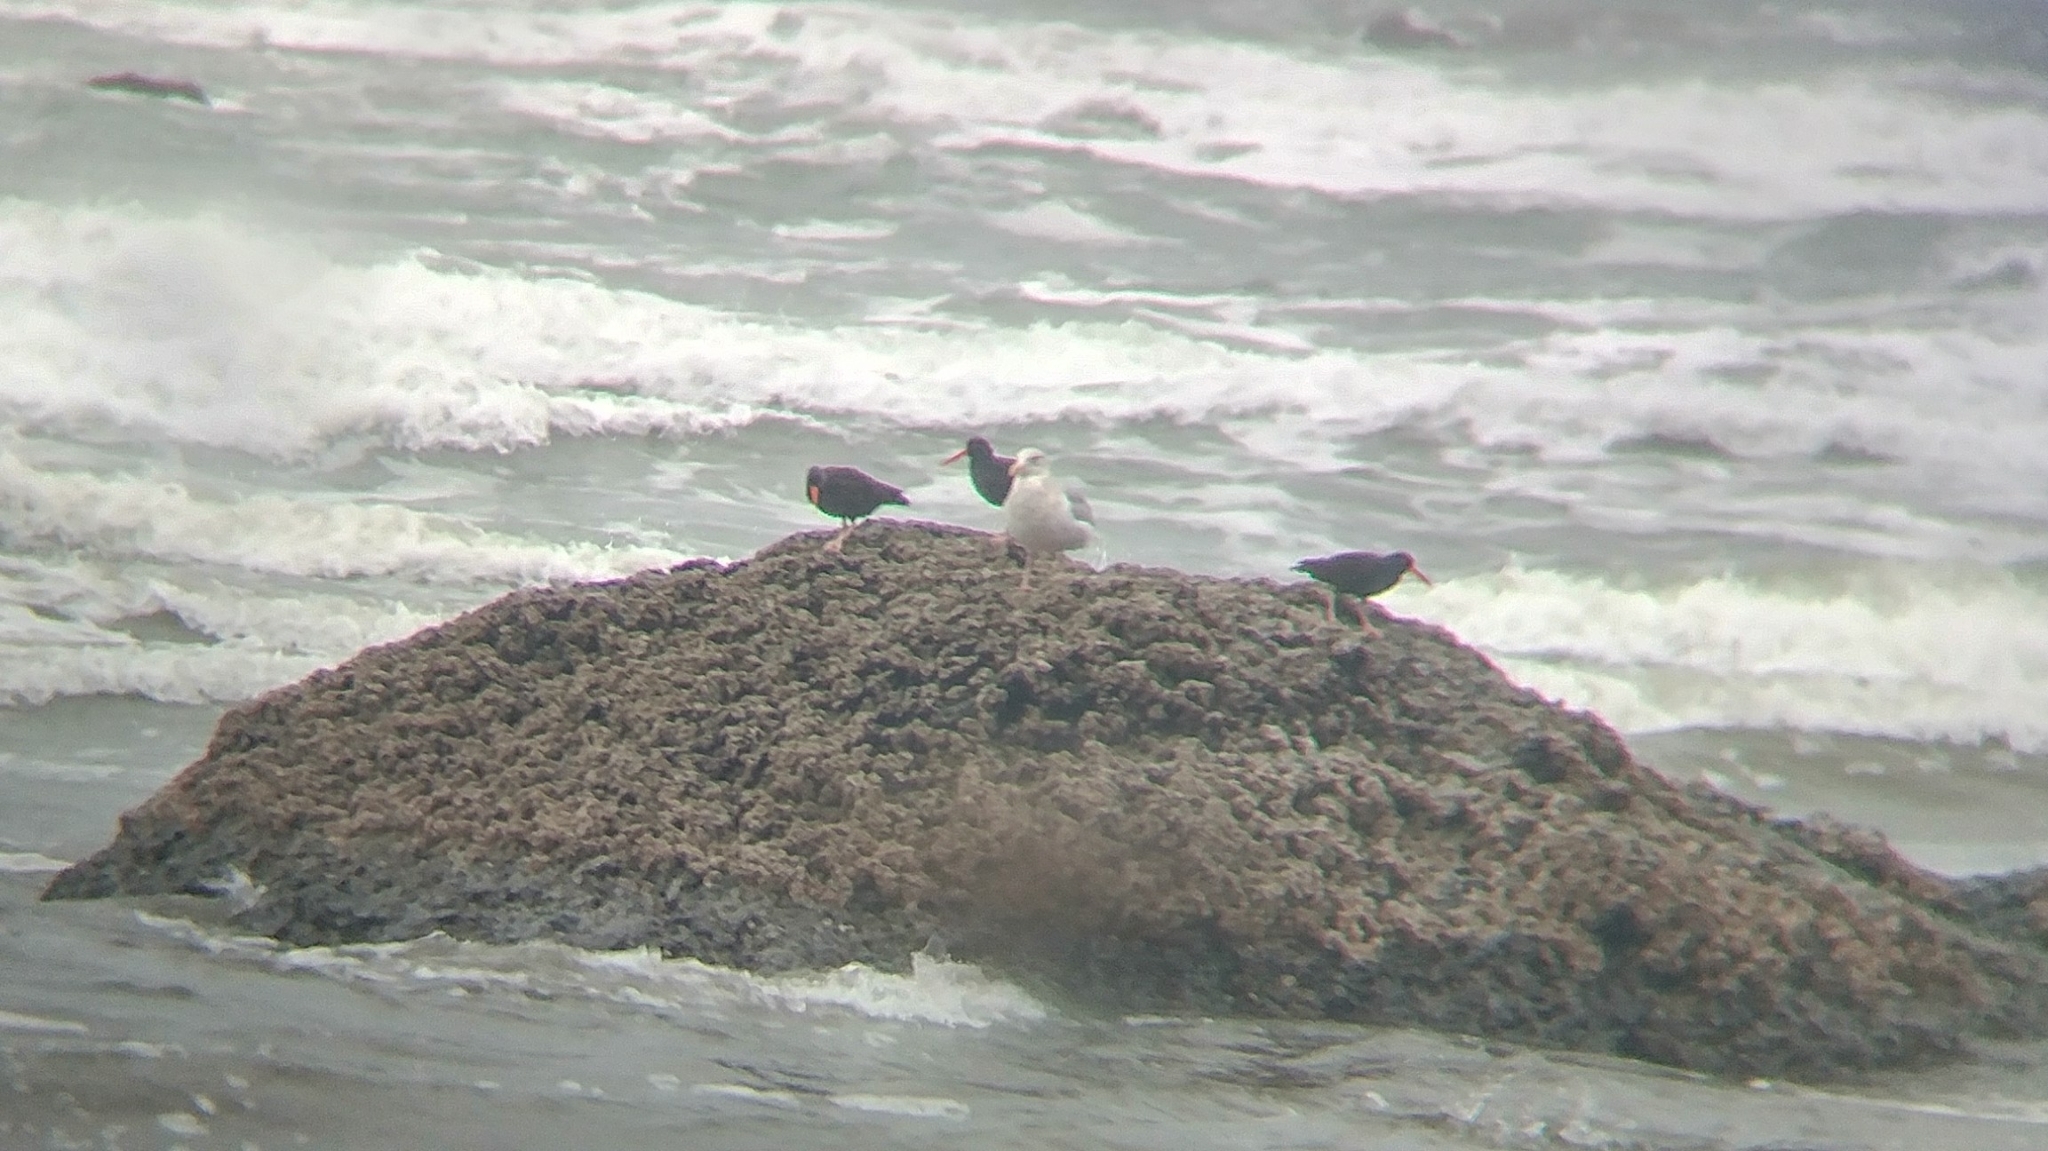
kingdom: Animalia
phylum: Chordata
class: Aves
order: Charadriiformes
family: Haematopodidae
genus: Haematopus
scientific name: Haematopus bachmani
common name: Black oystercatcher
